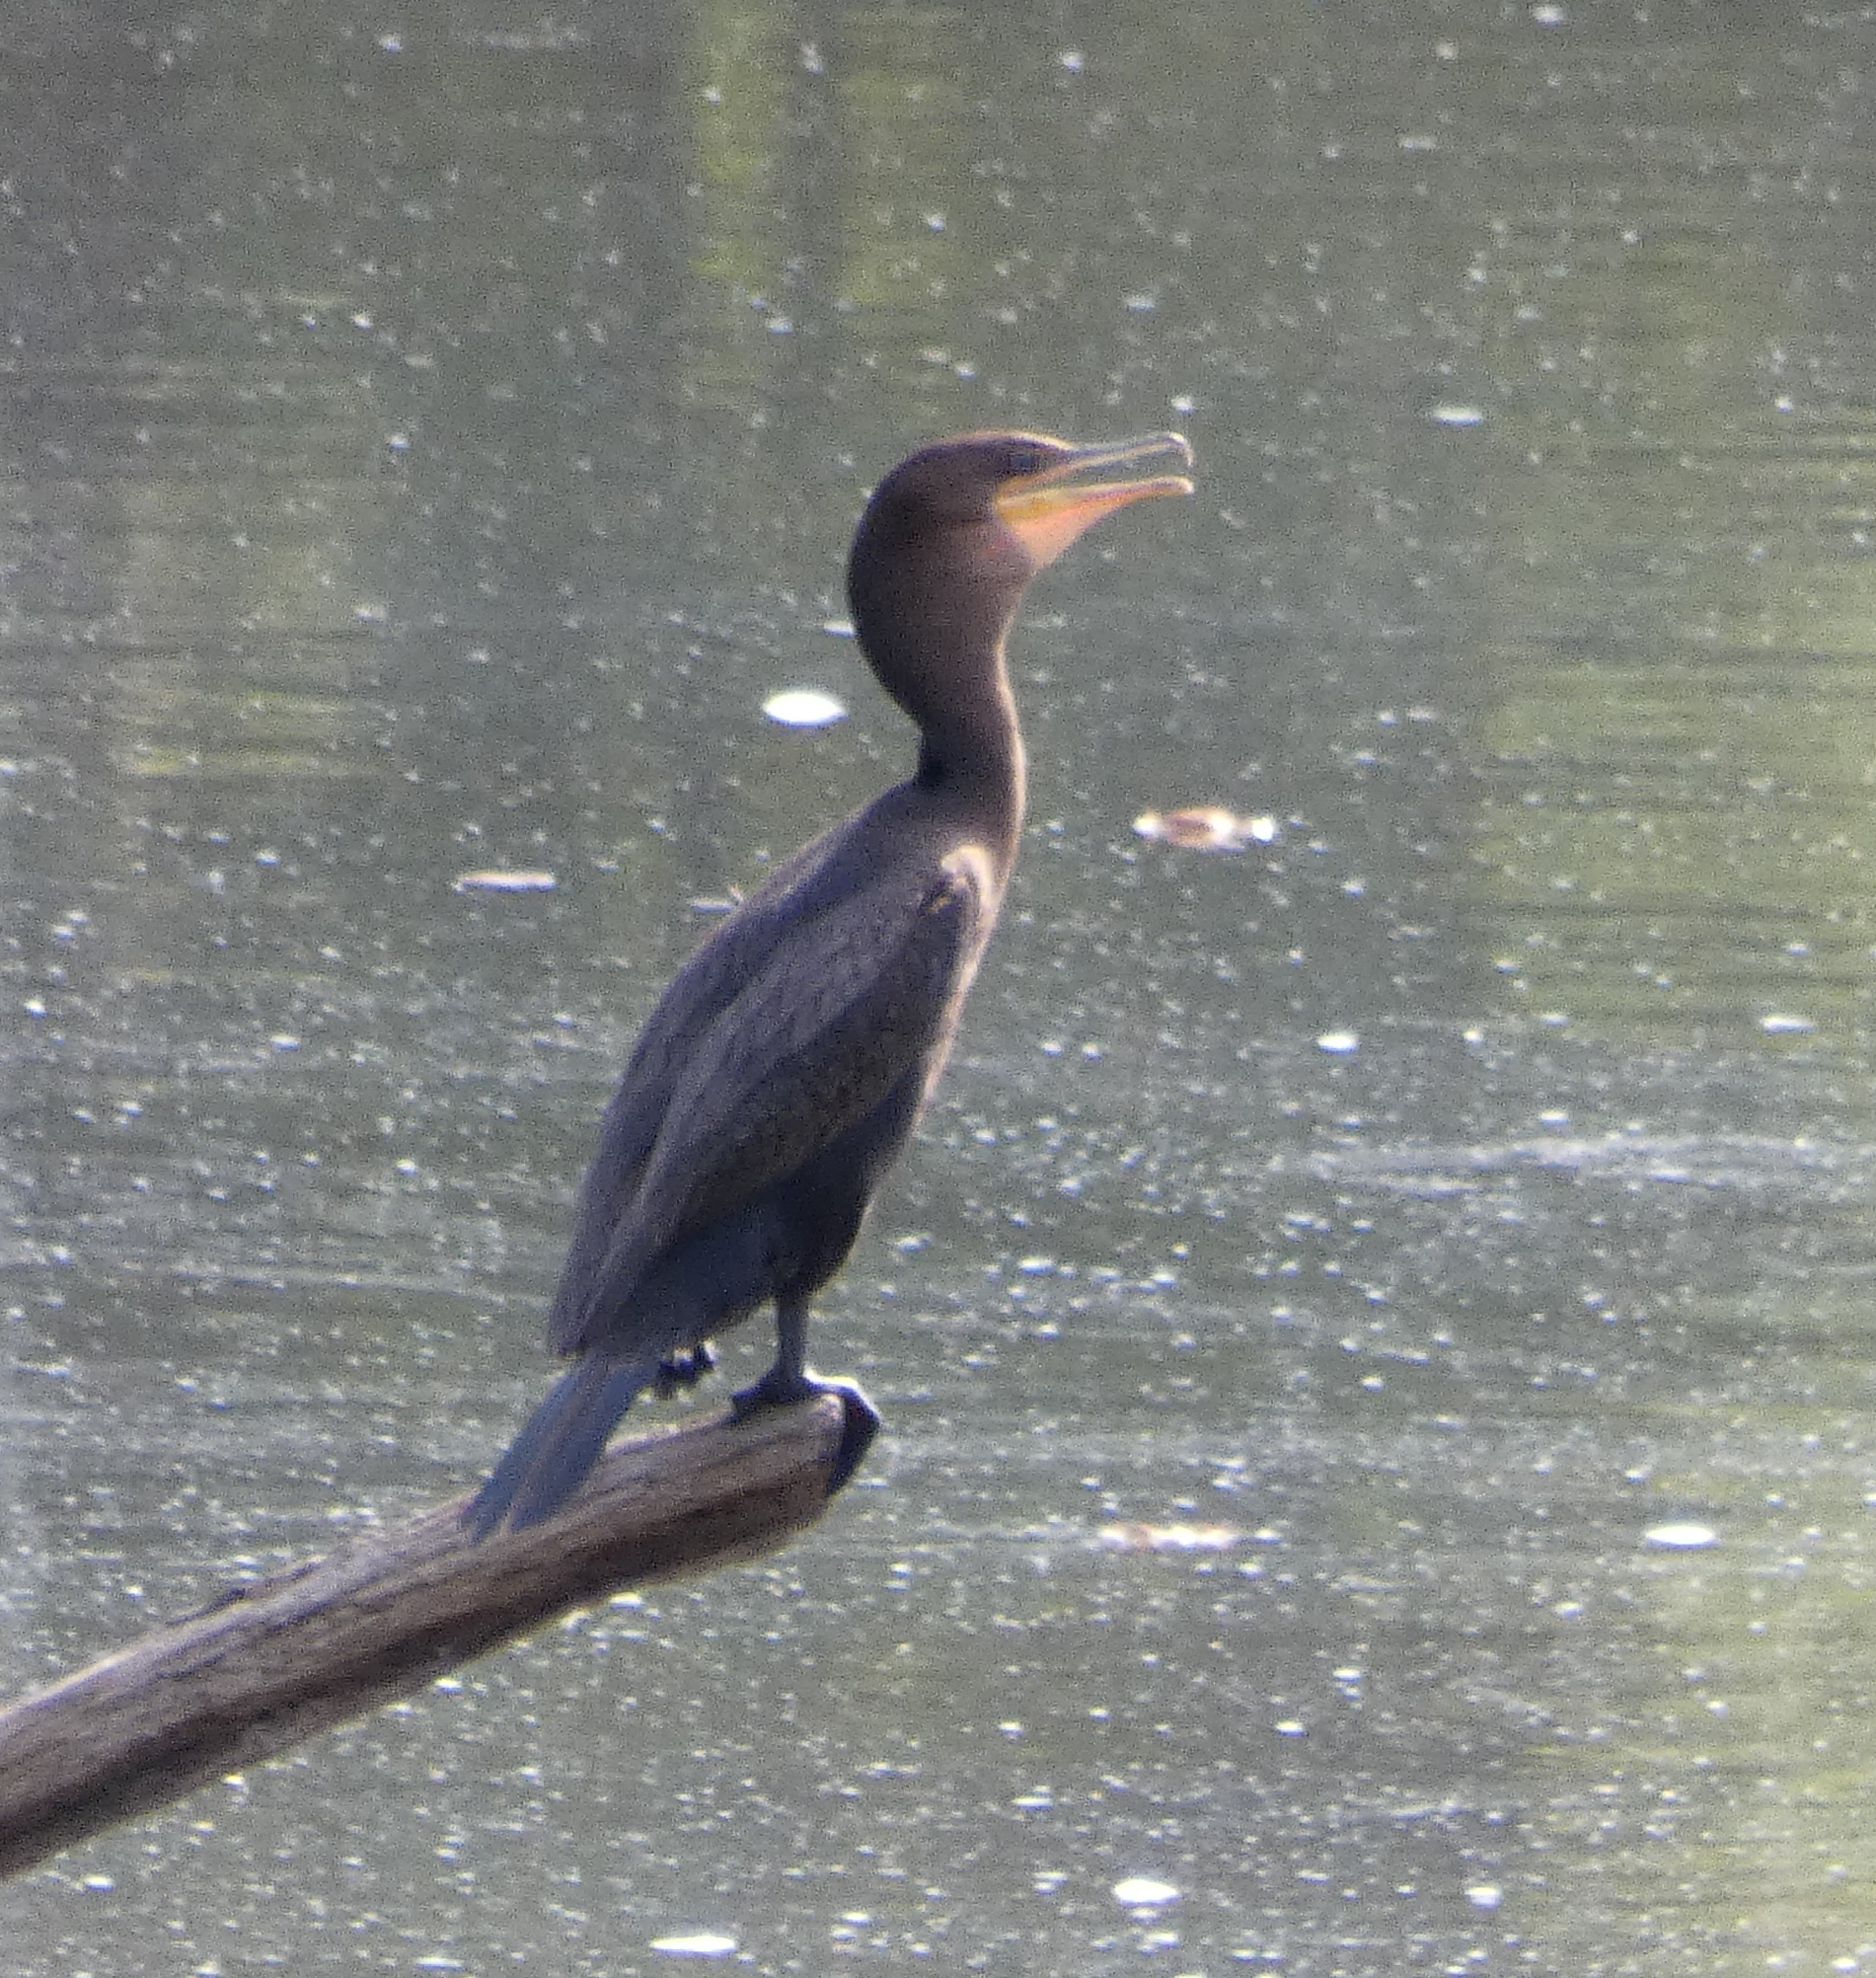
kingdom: Animalia
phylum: Chordata
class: Aves
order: Suliformes
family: Phalacrocoracidae
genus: Phalacrocorax
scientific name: Phalacrocorax auritus
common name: Double-crested cormorant
